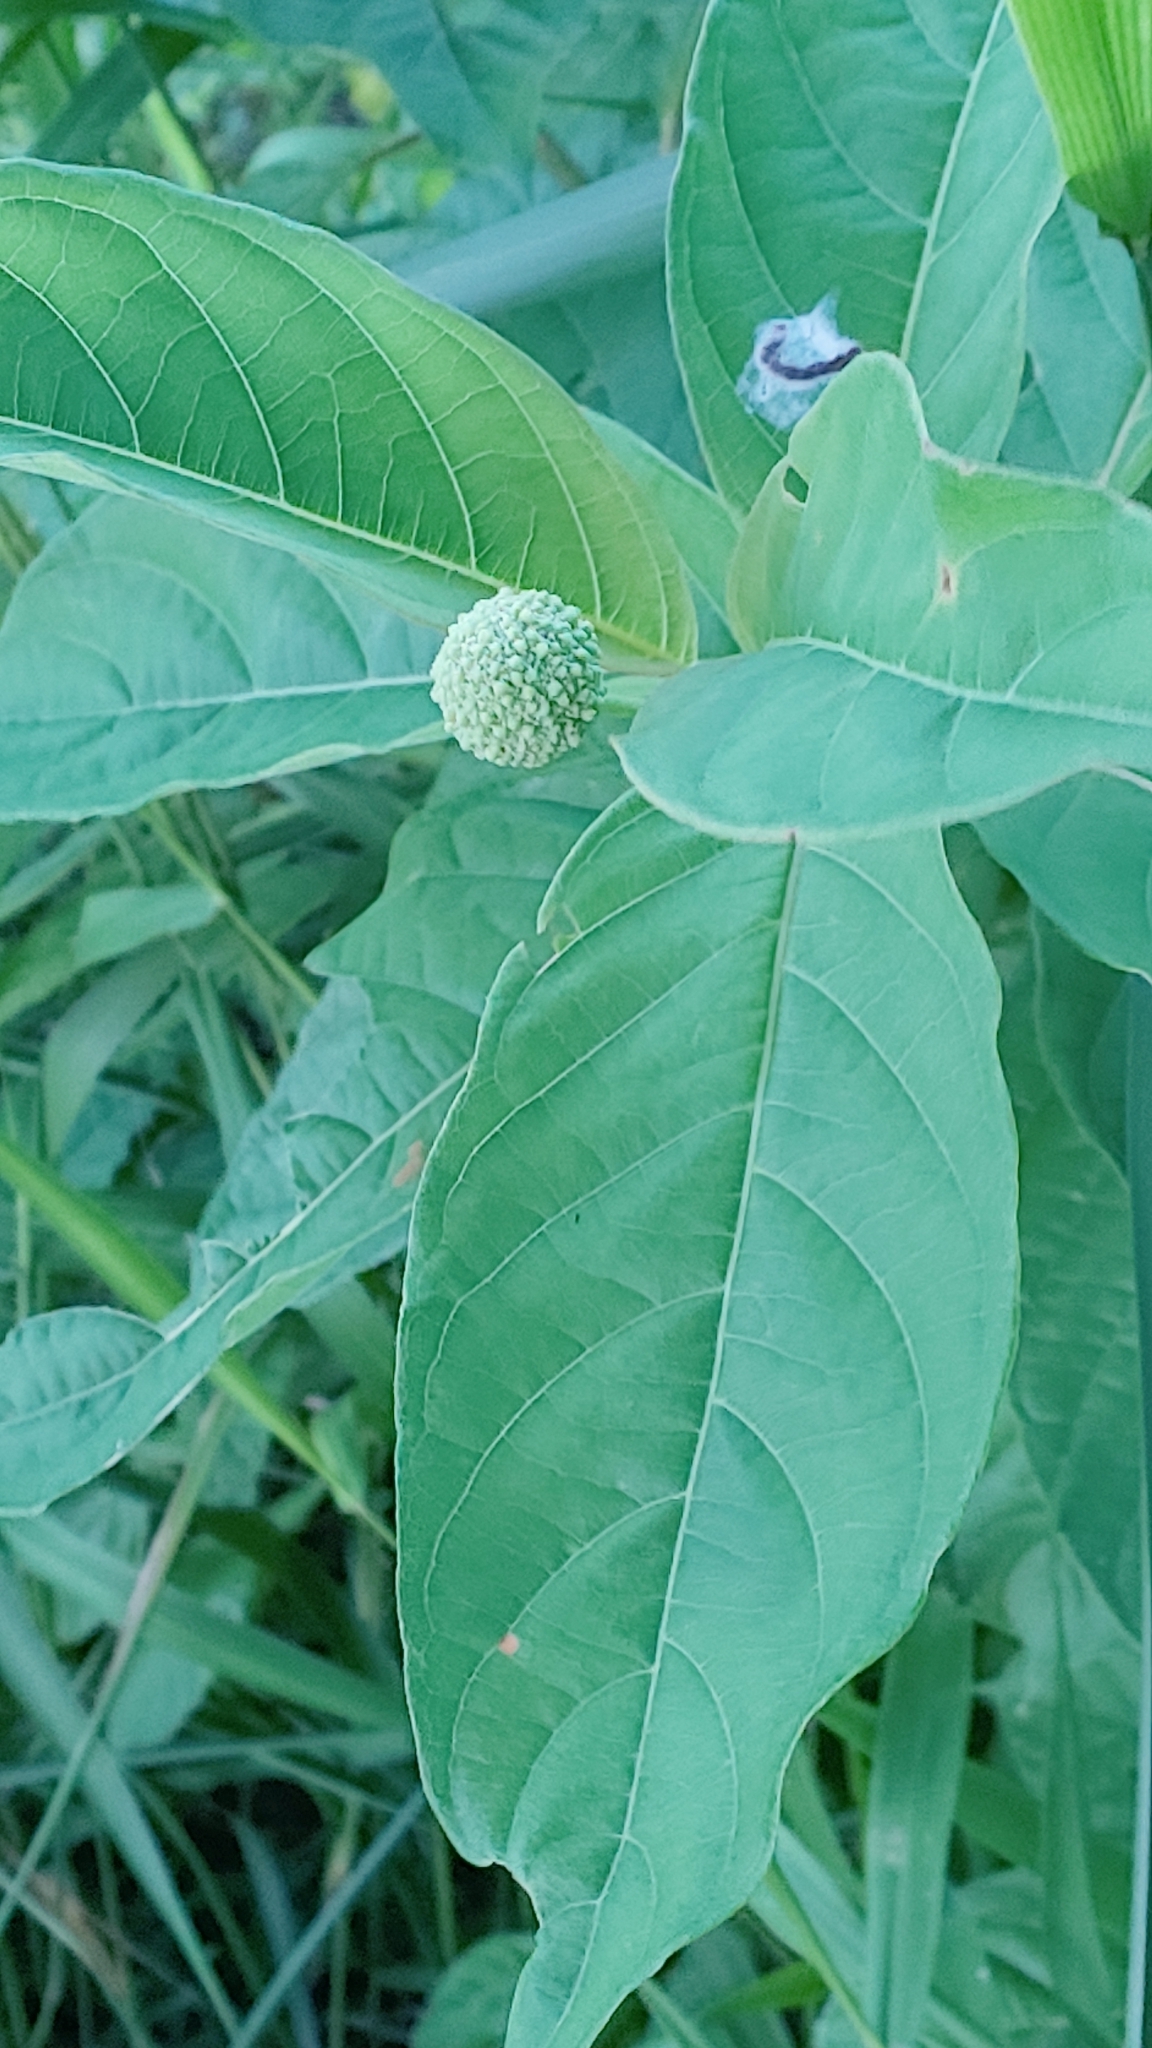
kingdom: Plantae
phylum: Tracheophyta
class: Magnoliopsida
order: Gentianales
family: Rubiaceae
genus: Cephalanthus
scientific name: Cephalanthus occidentalis
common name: Button-willow
